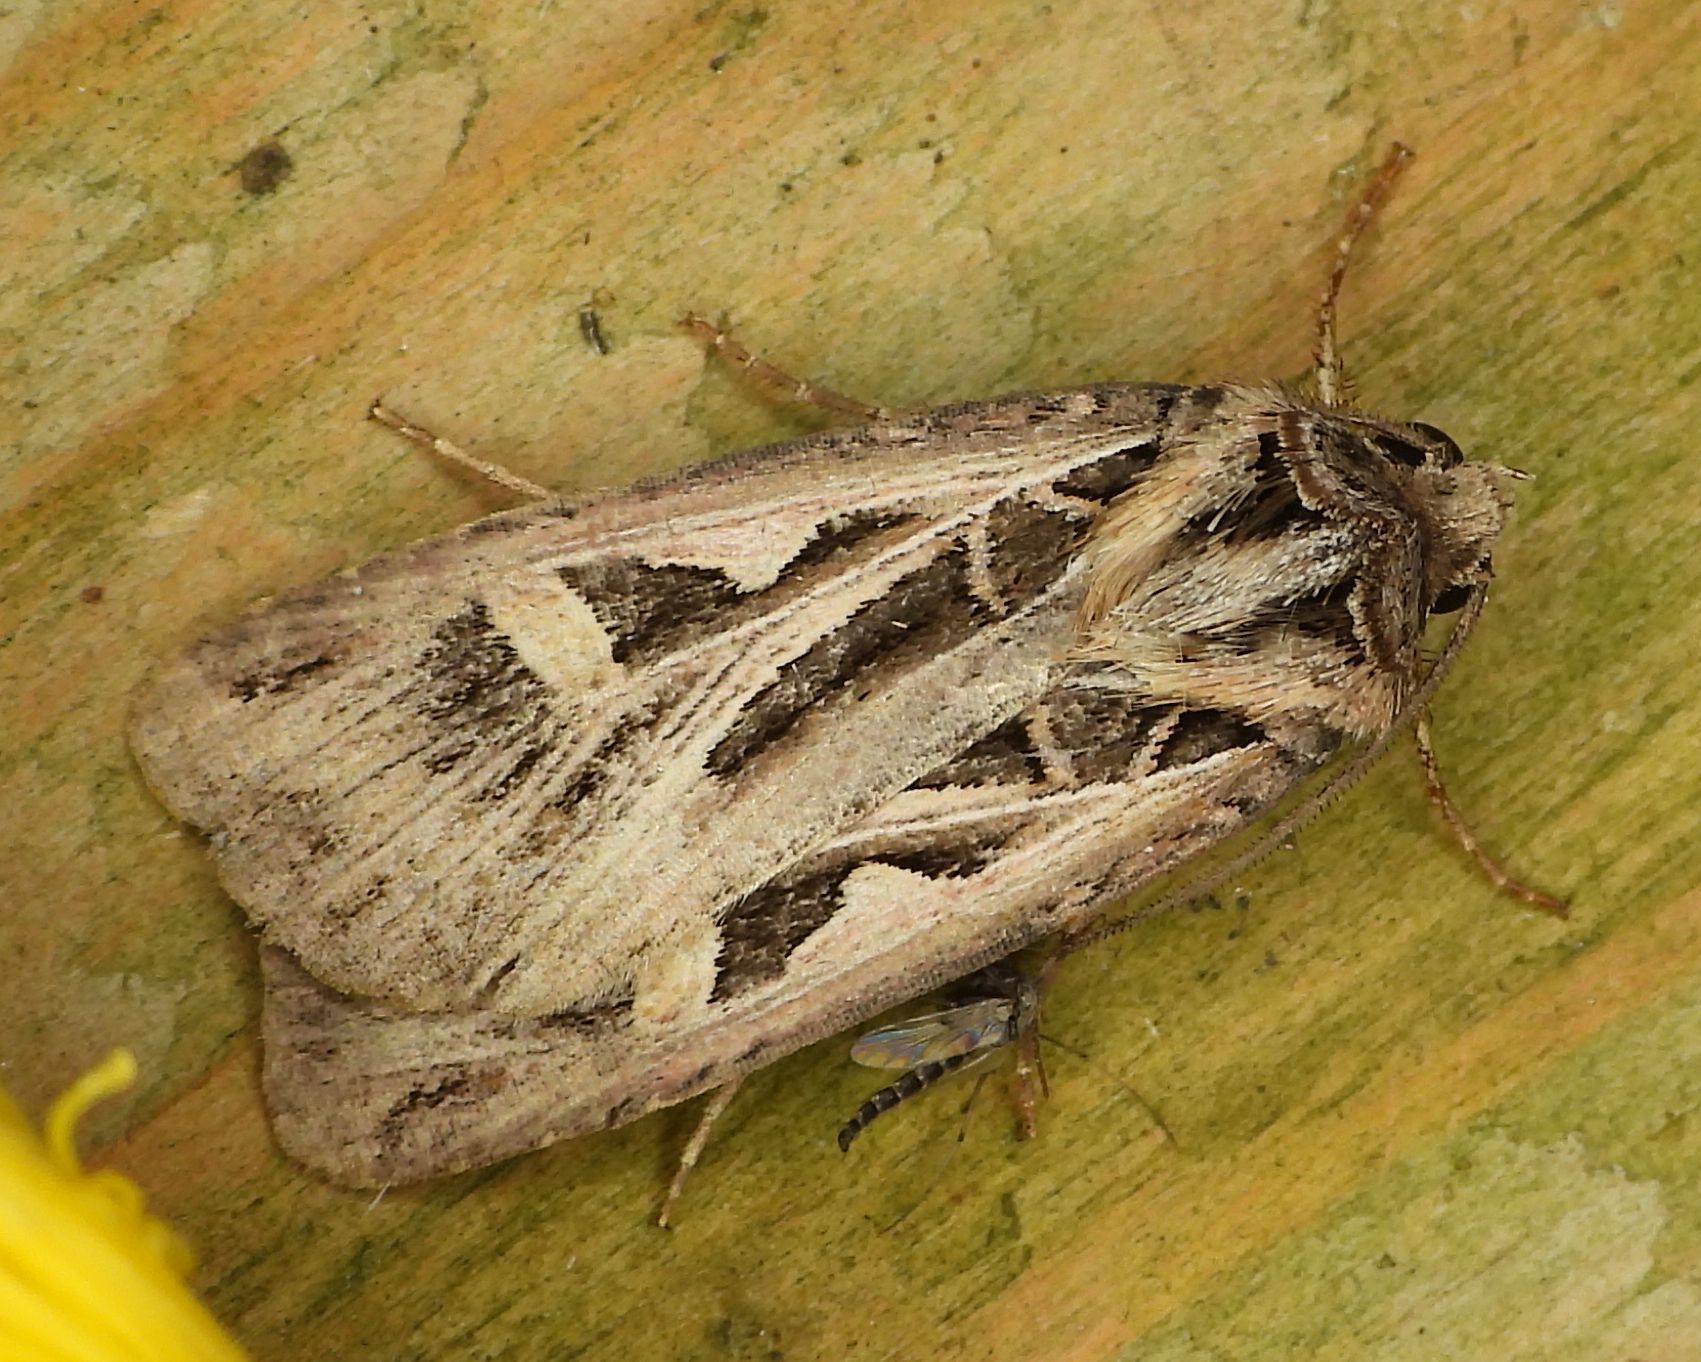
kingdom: Animalia
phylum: Arthropoda
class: Insecta
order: Lepidoptera
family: Noctuidae
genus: Feltia
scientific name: Feltia jaculifera
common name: Dingy cutworm moth
